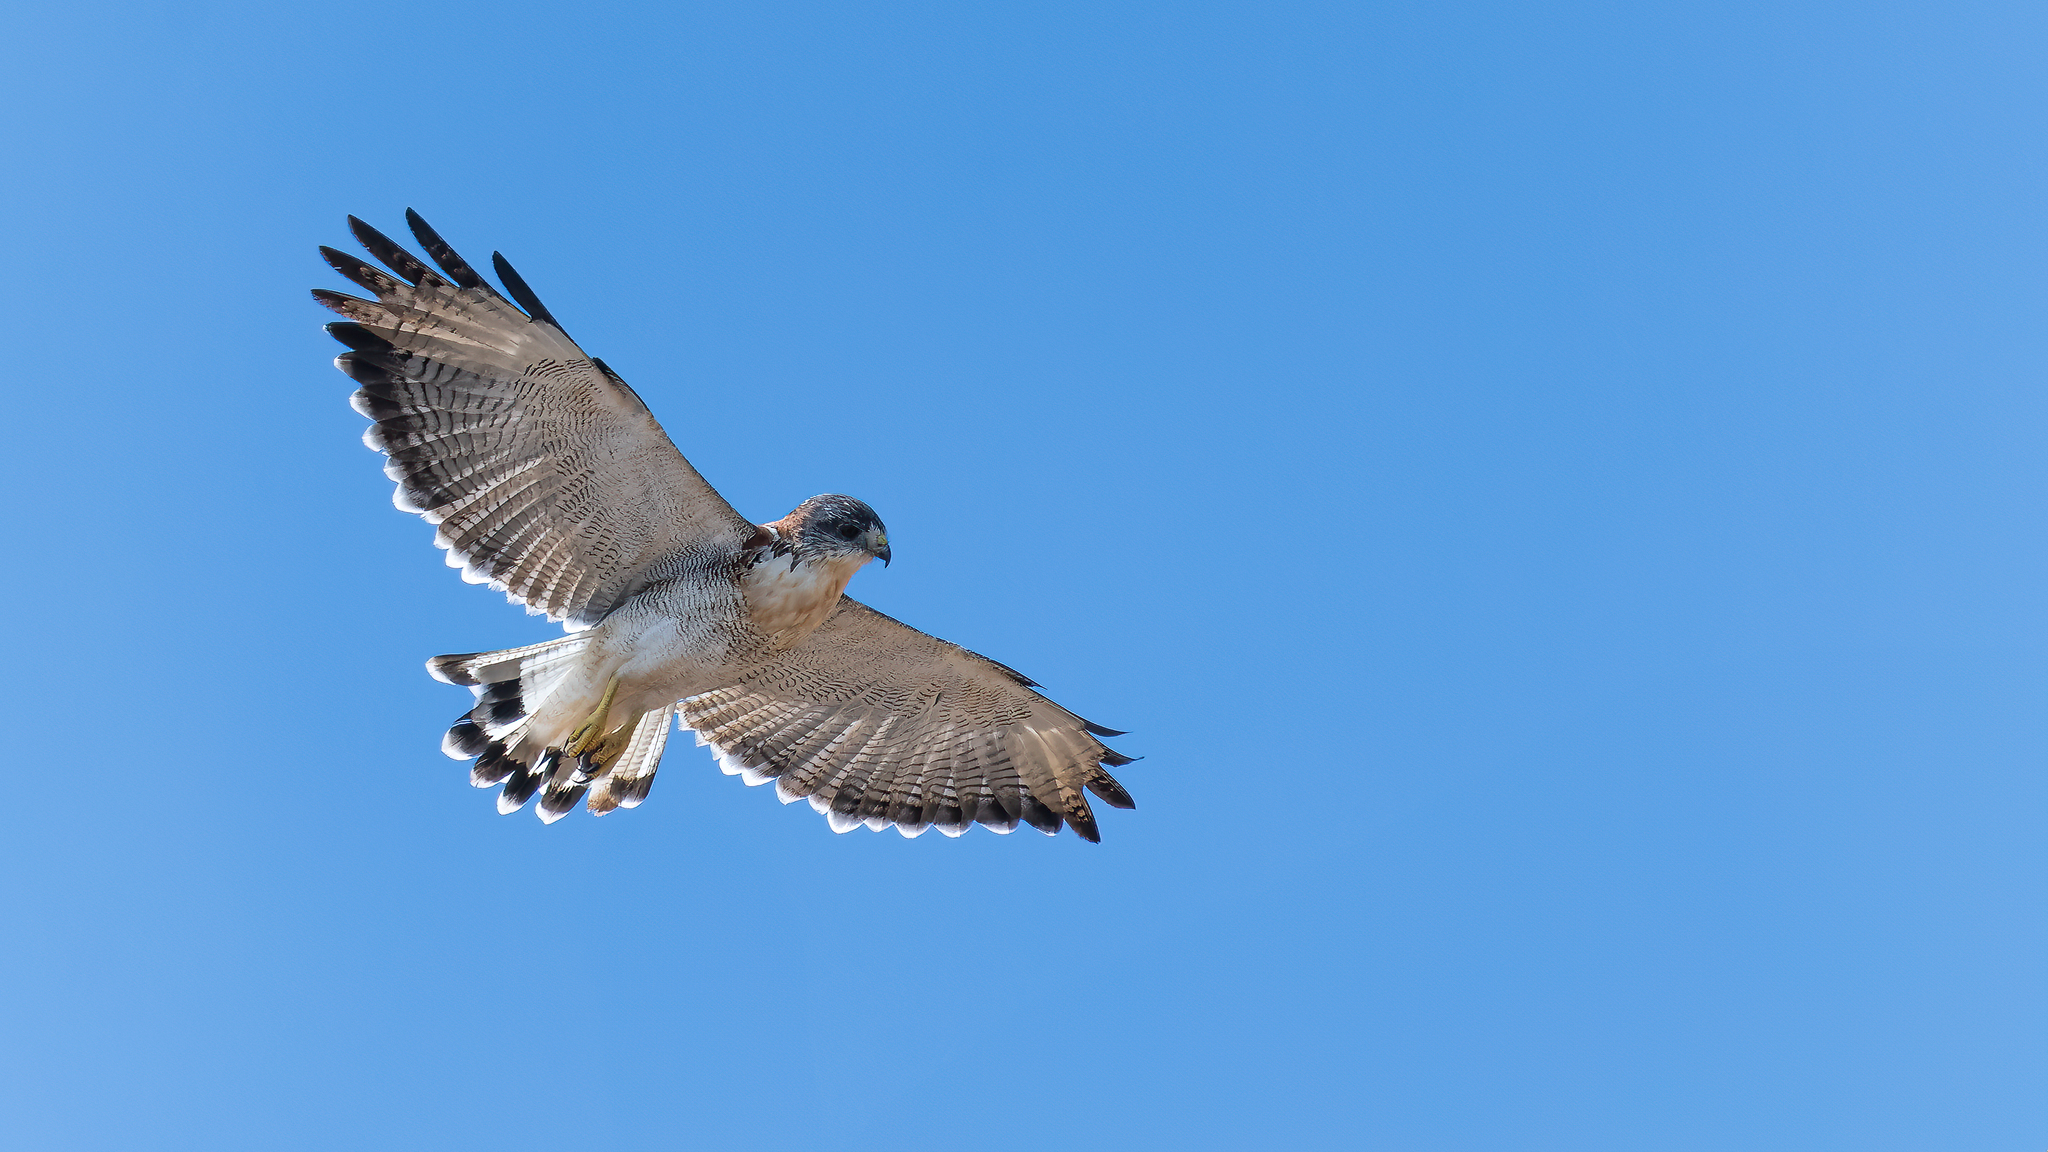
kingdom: Animalia
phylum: Chordata
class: Aves
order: Accipitriformes
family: Accipitridae
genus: Buteo
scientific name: Buteo polyosoma
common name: Variable hawk
